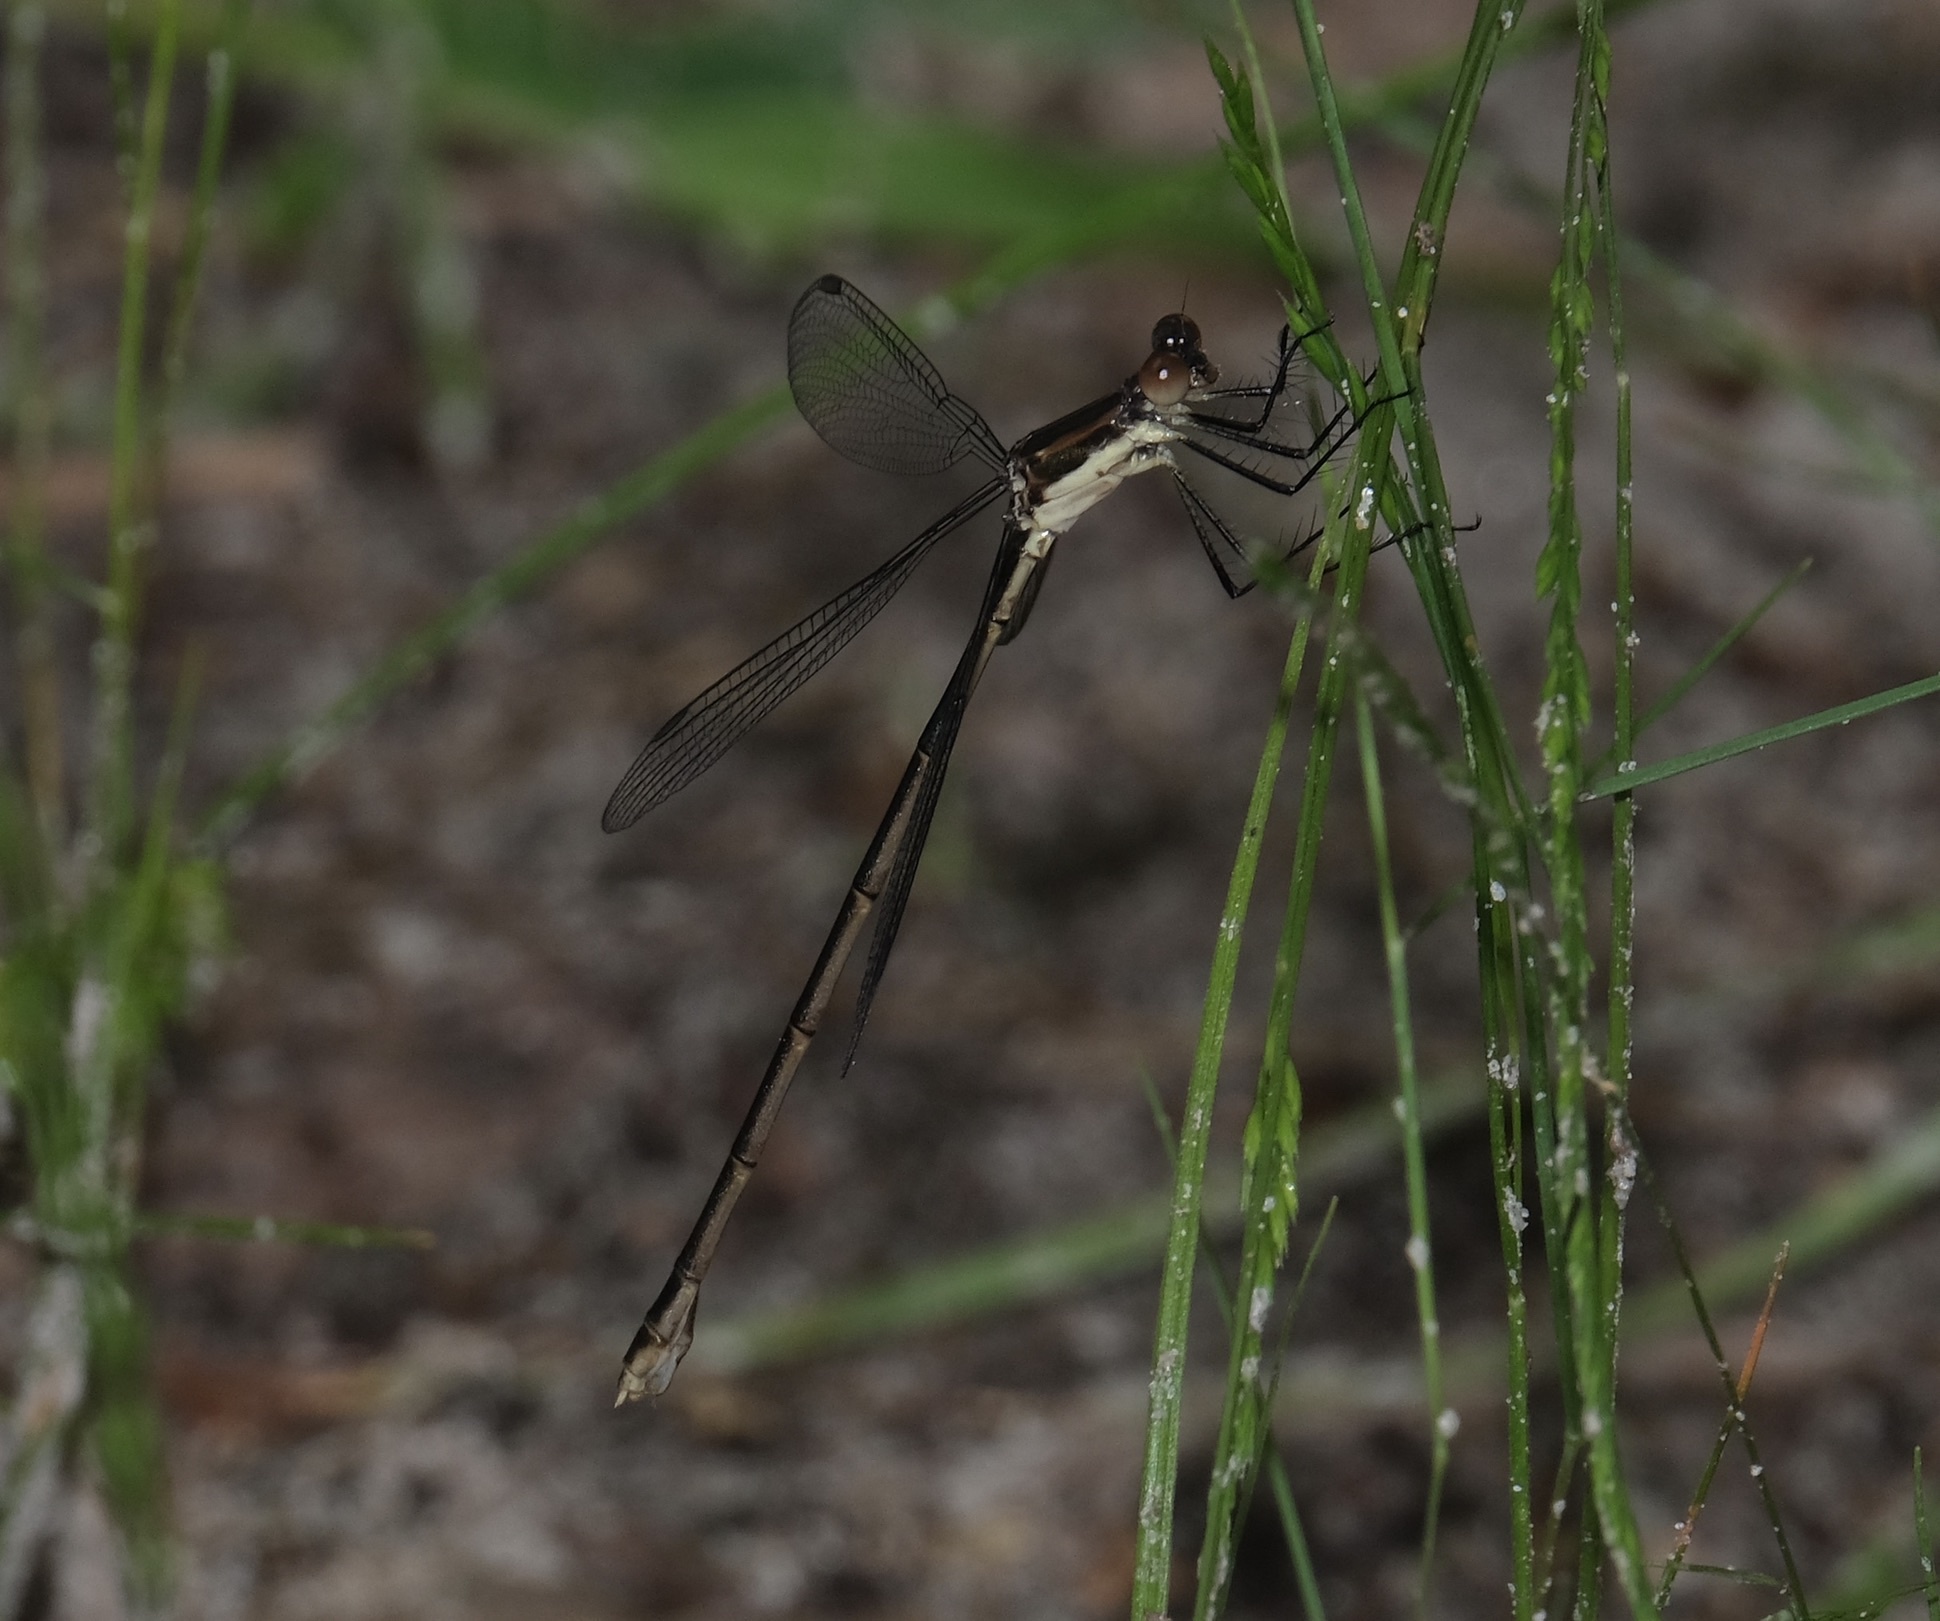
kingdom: Animalia
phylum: Arthropoda
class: Insecta
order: Odonata
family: Lestidae
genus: Lestes
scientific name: Lestes vigilax
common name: Swamp spreadwing
